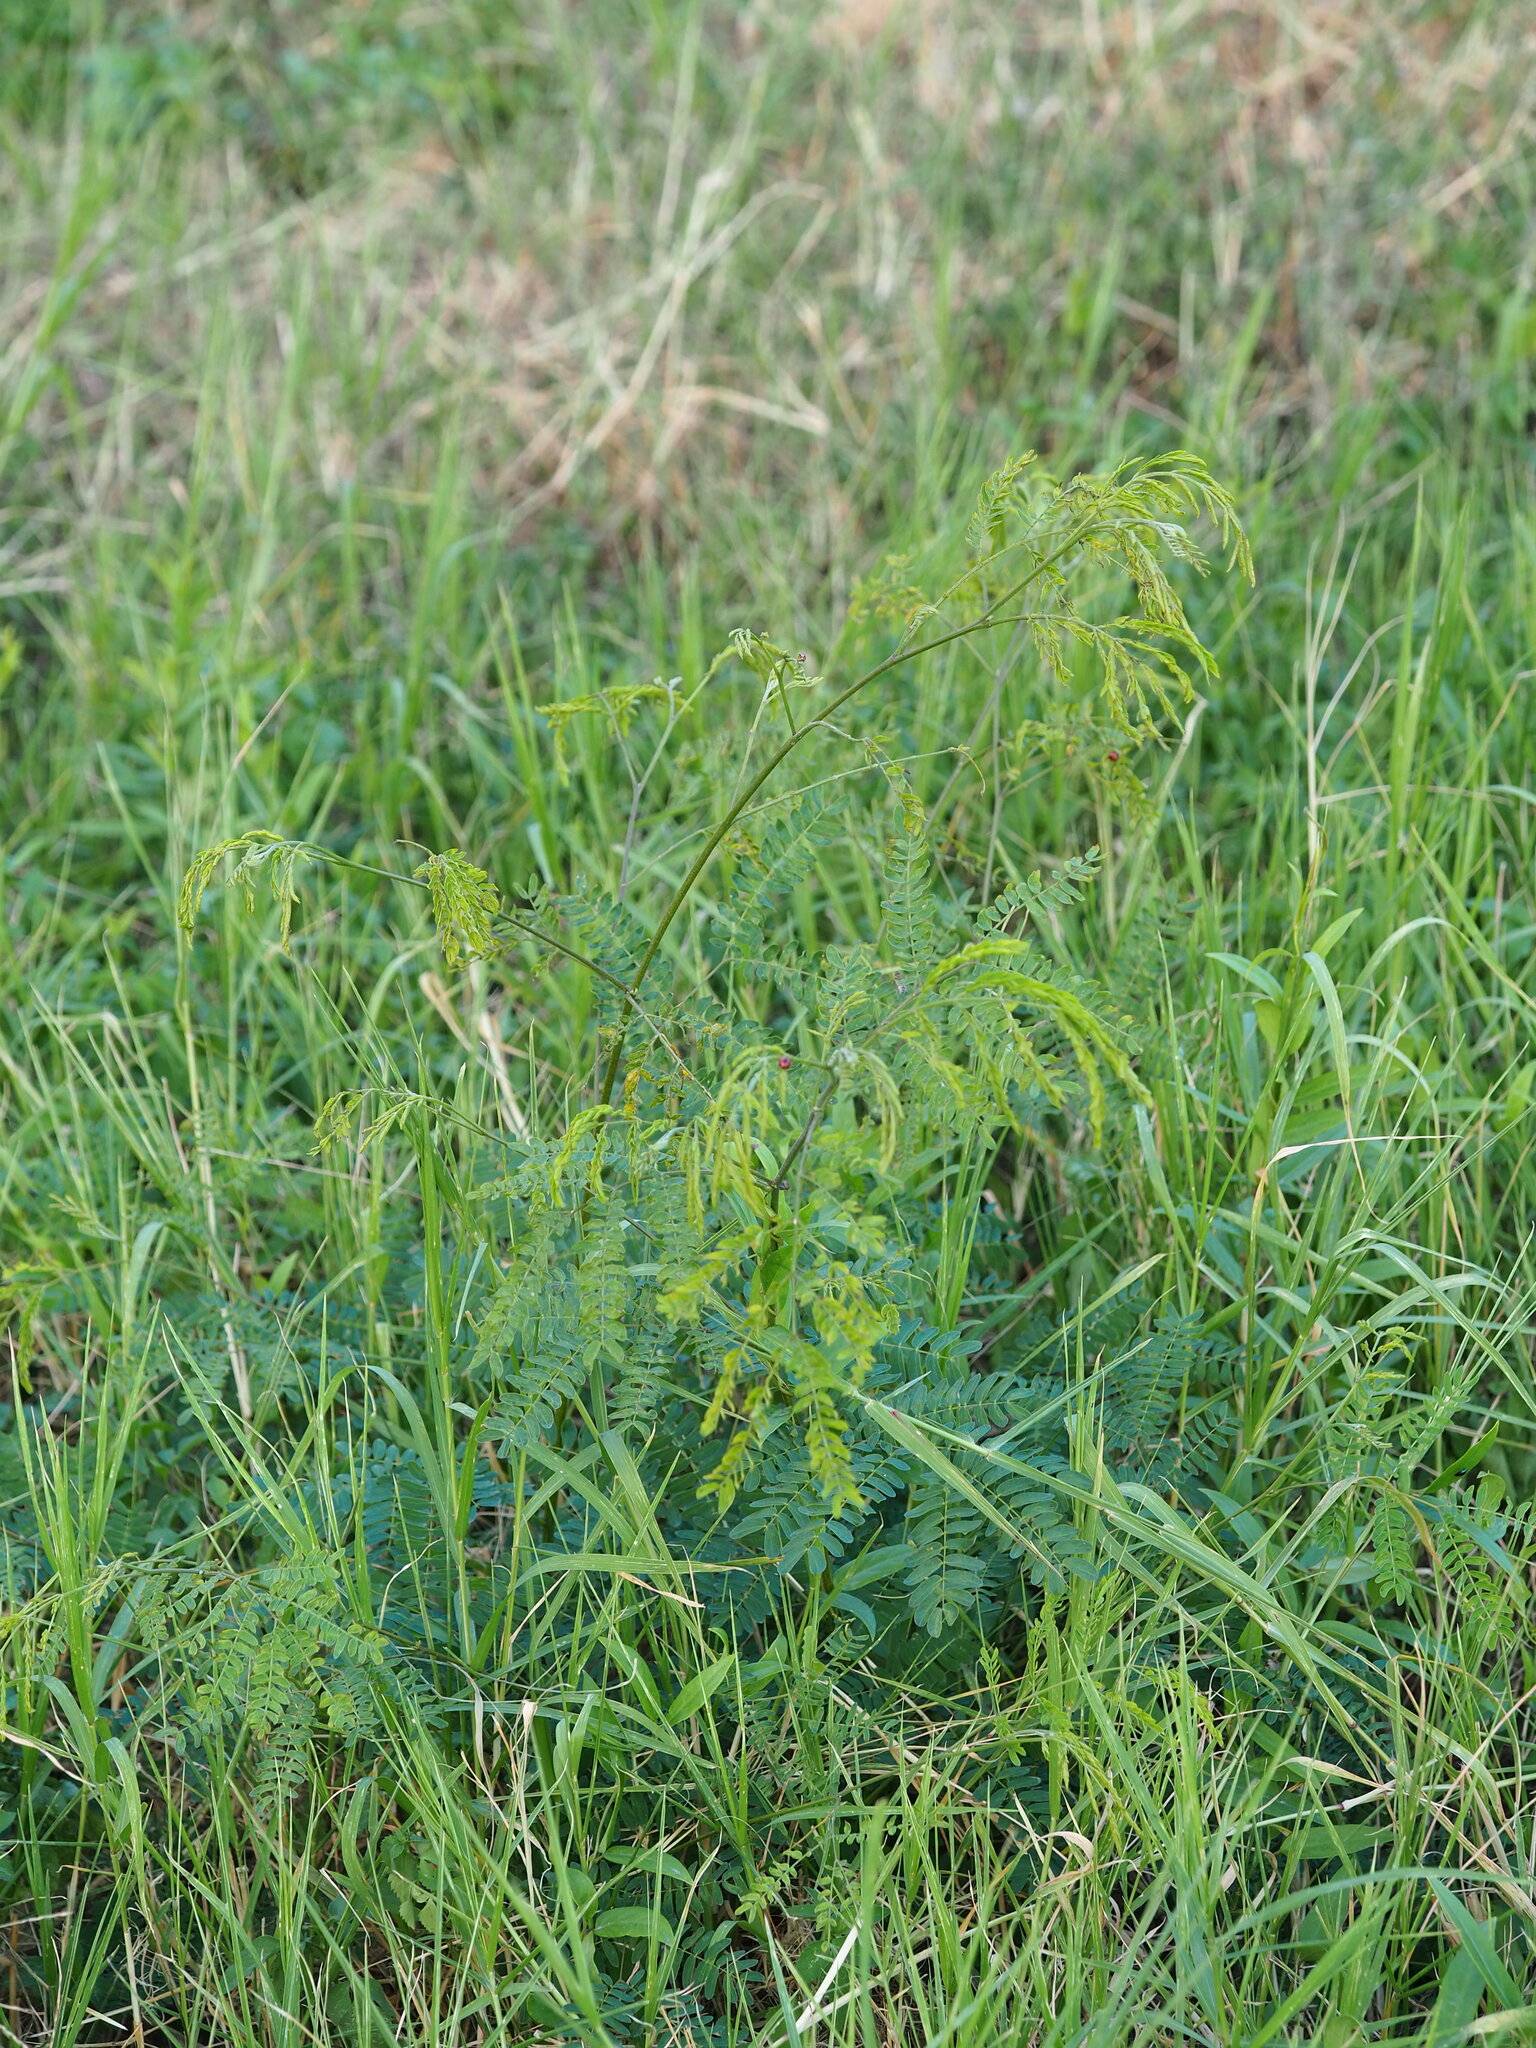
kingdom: Plantae
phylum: Tracheophyta
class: Magnoliopsida
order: Fabales
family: Fabaceae
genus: Leucaena
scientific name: Leucaena leucocephala
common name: White leadtree
